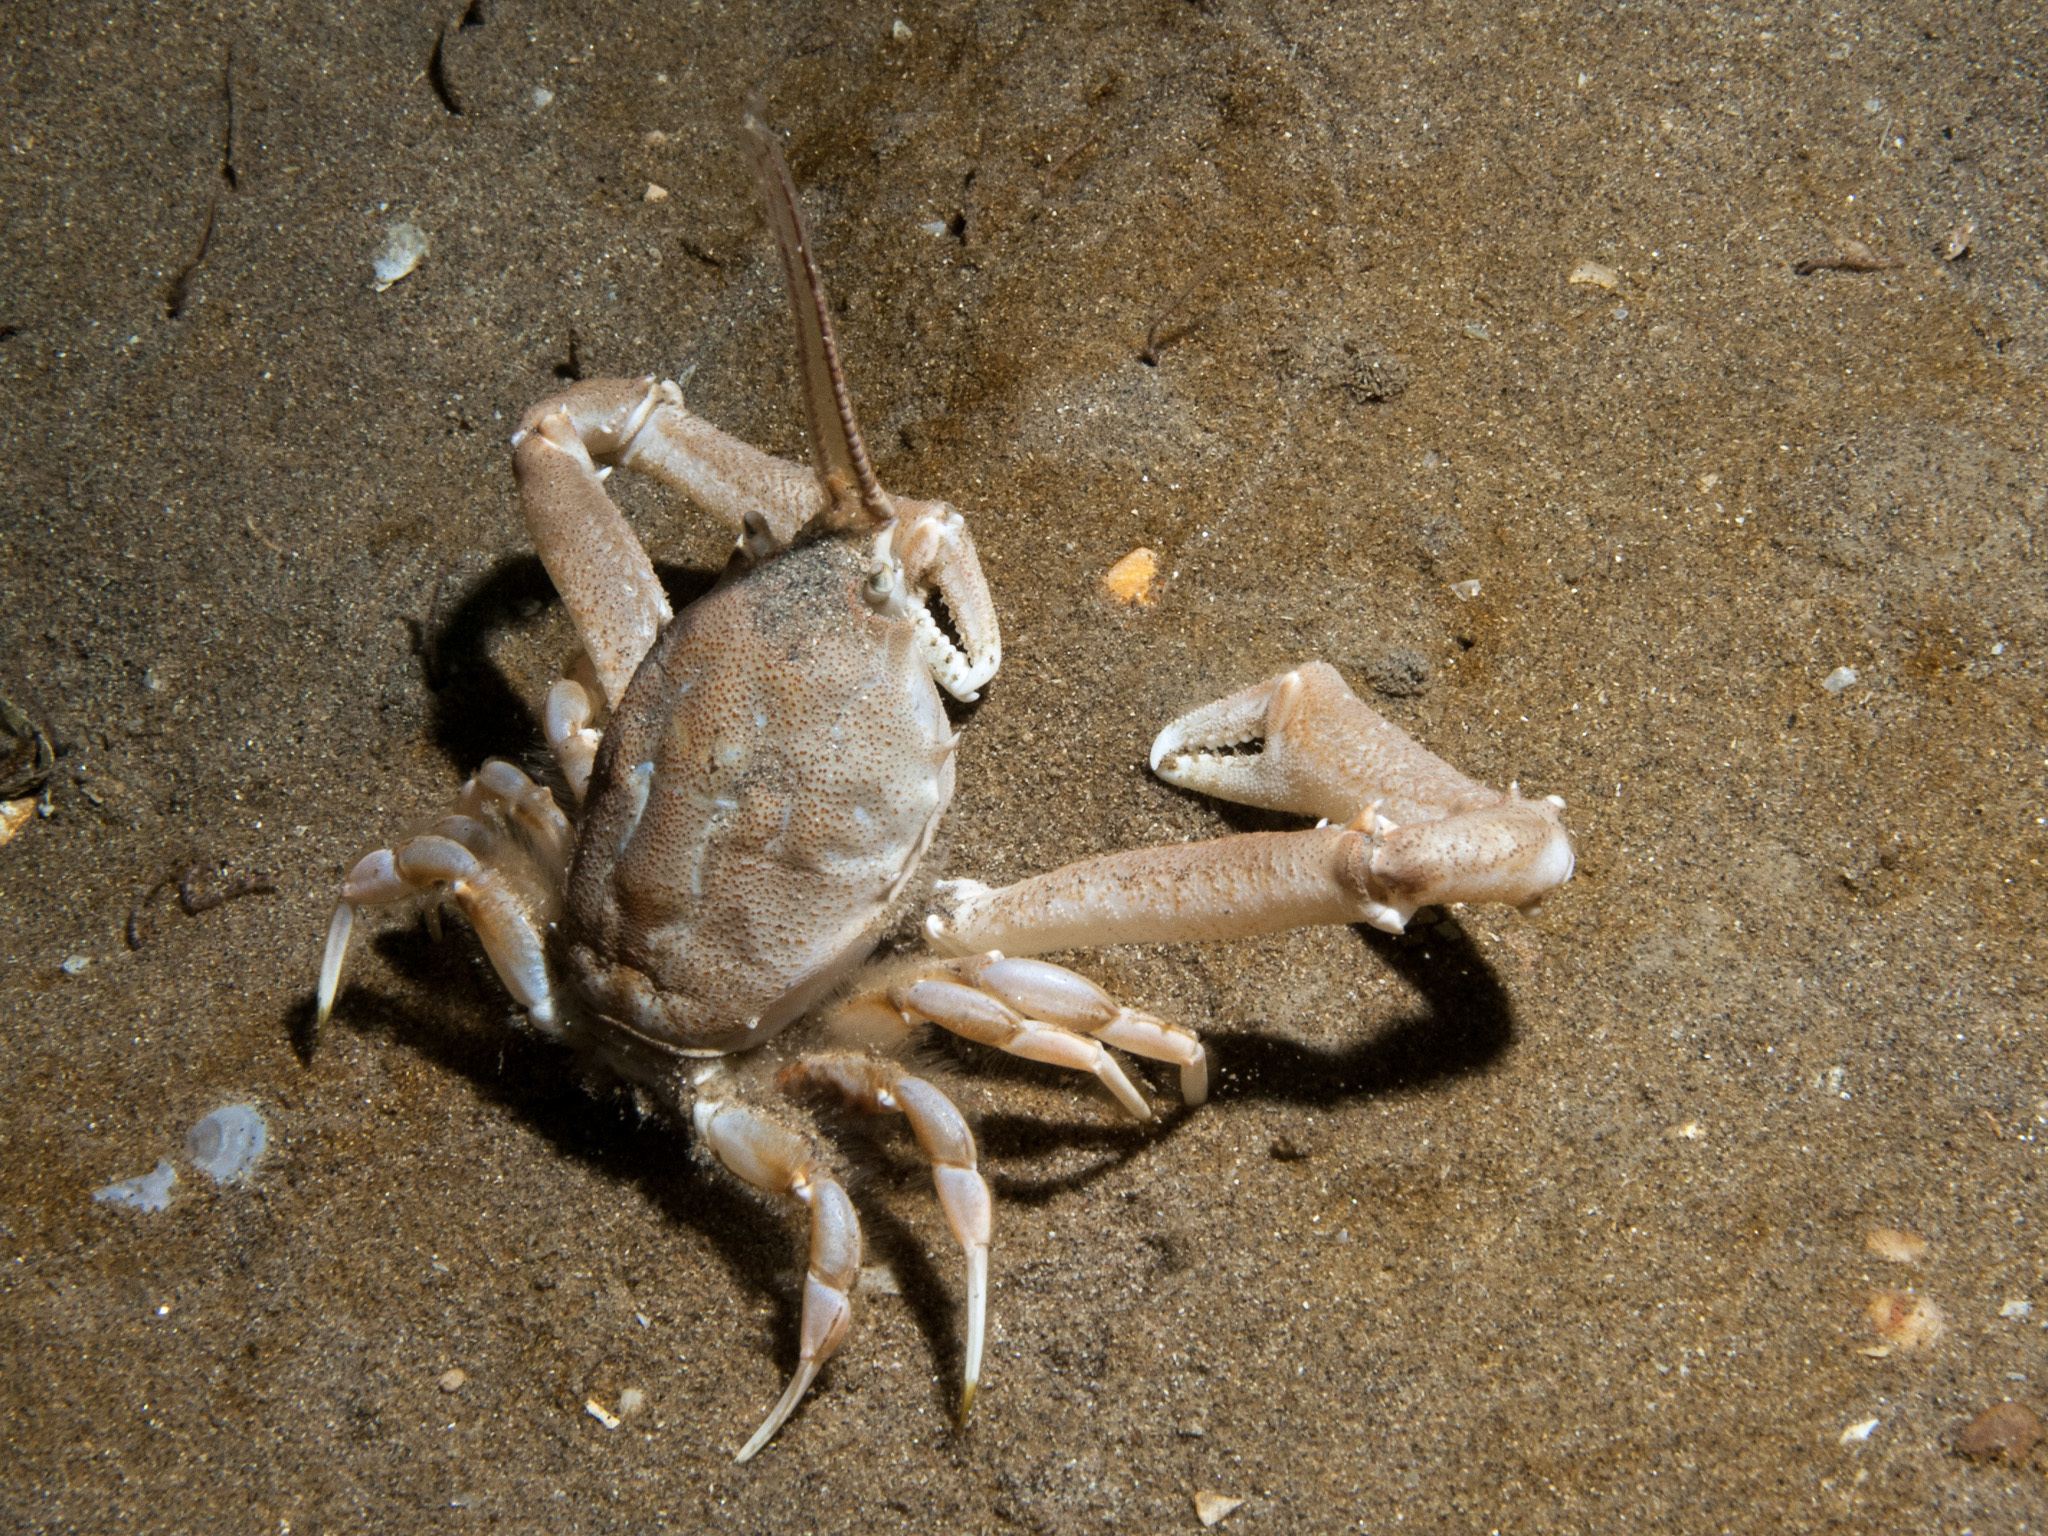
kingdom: Animalia
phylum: Arthropoda
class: Malacostraca
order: Decapoda
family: Corystidae
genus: Corystes
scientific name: Corystes cassivelaunus
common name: Masked crab
